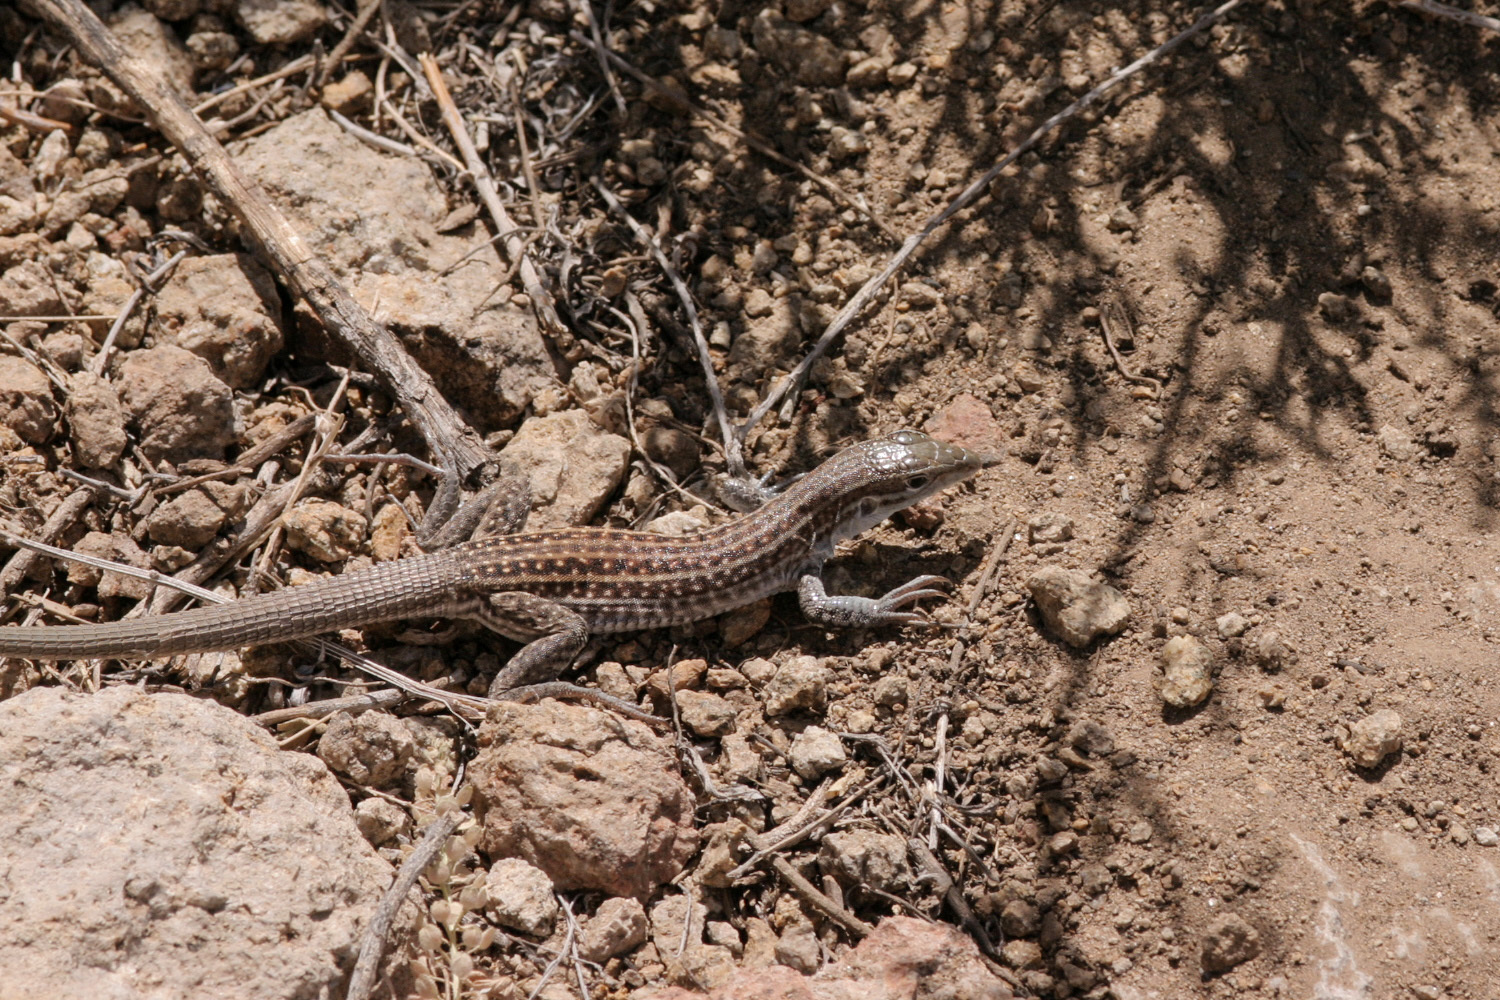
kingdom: Animalia
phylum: Chordata
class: Squamata
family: Teiidae
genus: Aspidoscelis
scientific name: Aspidoscelis exsanguis
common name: Chihuahuan spotted whiptail
